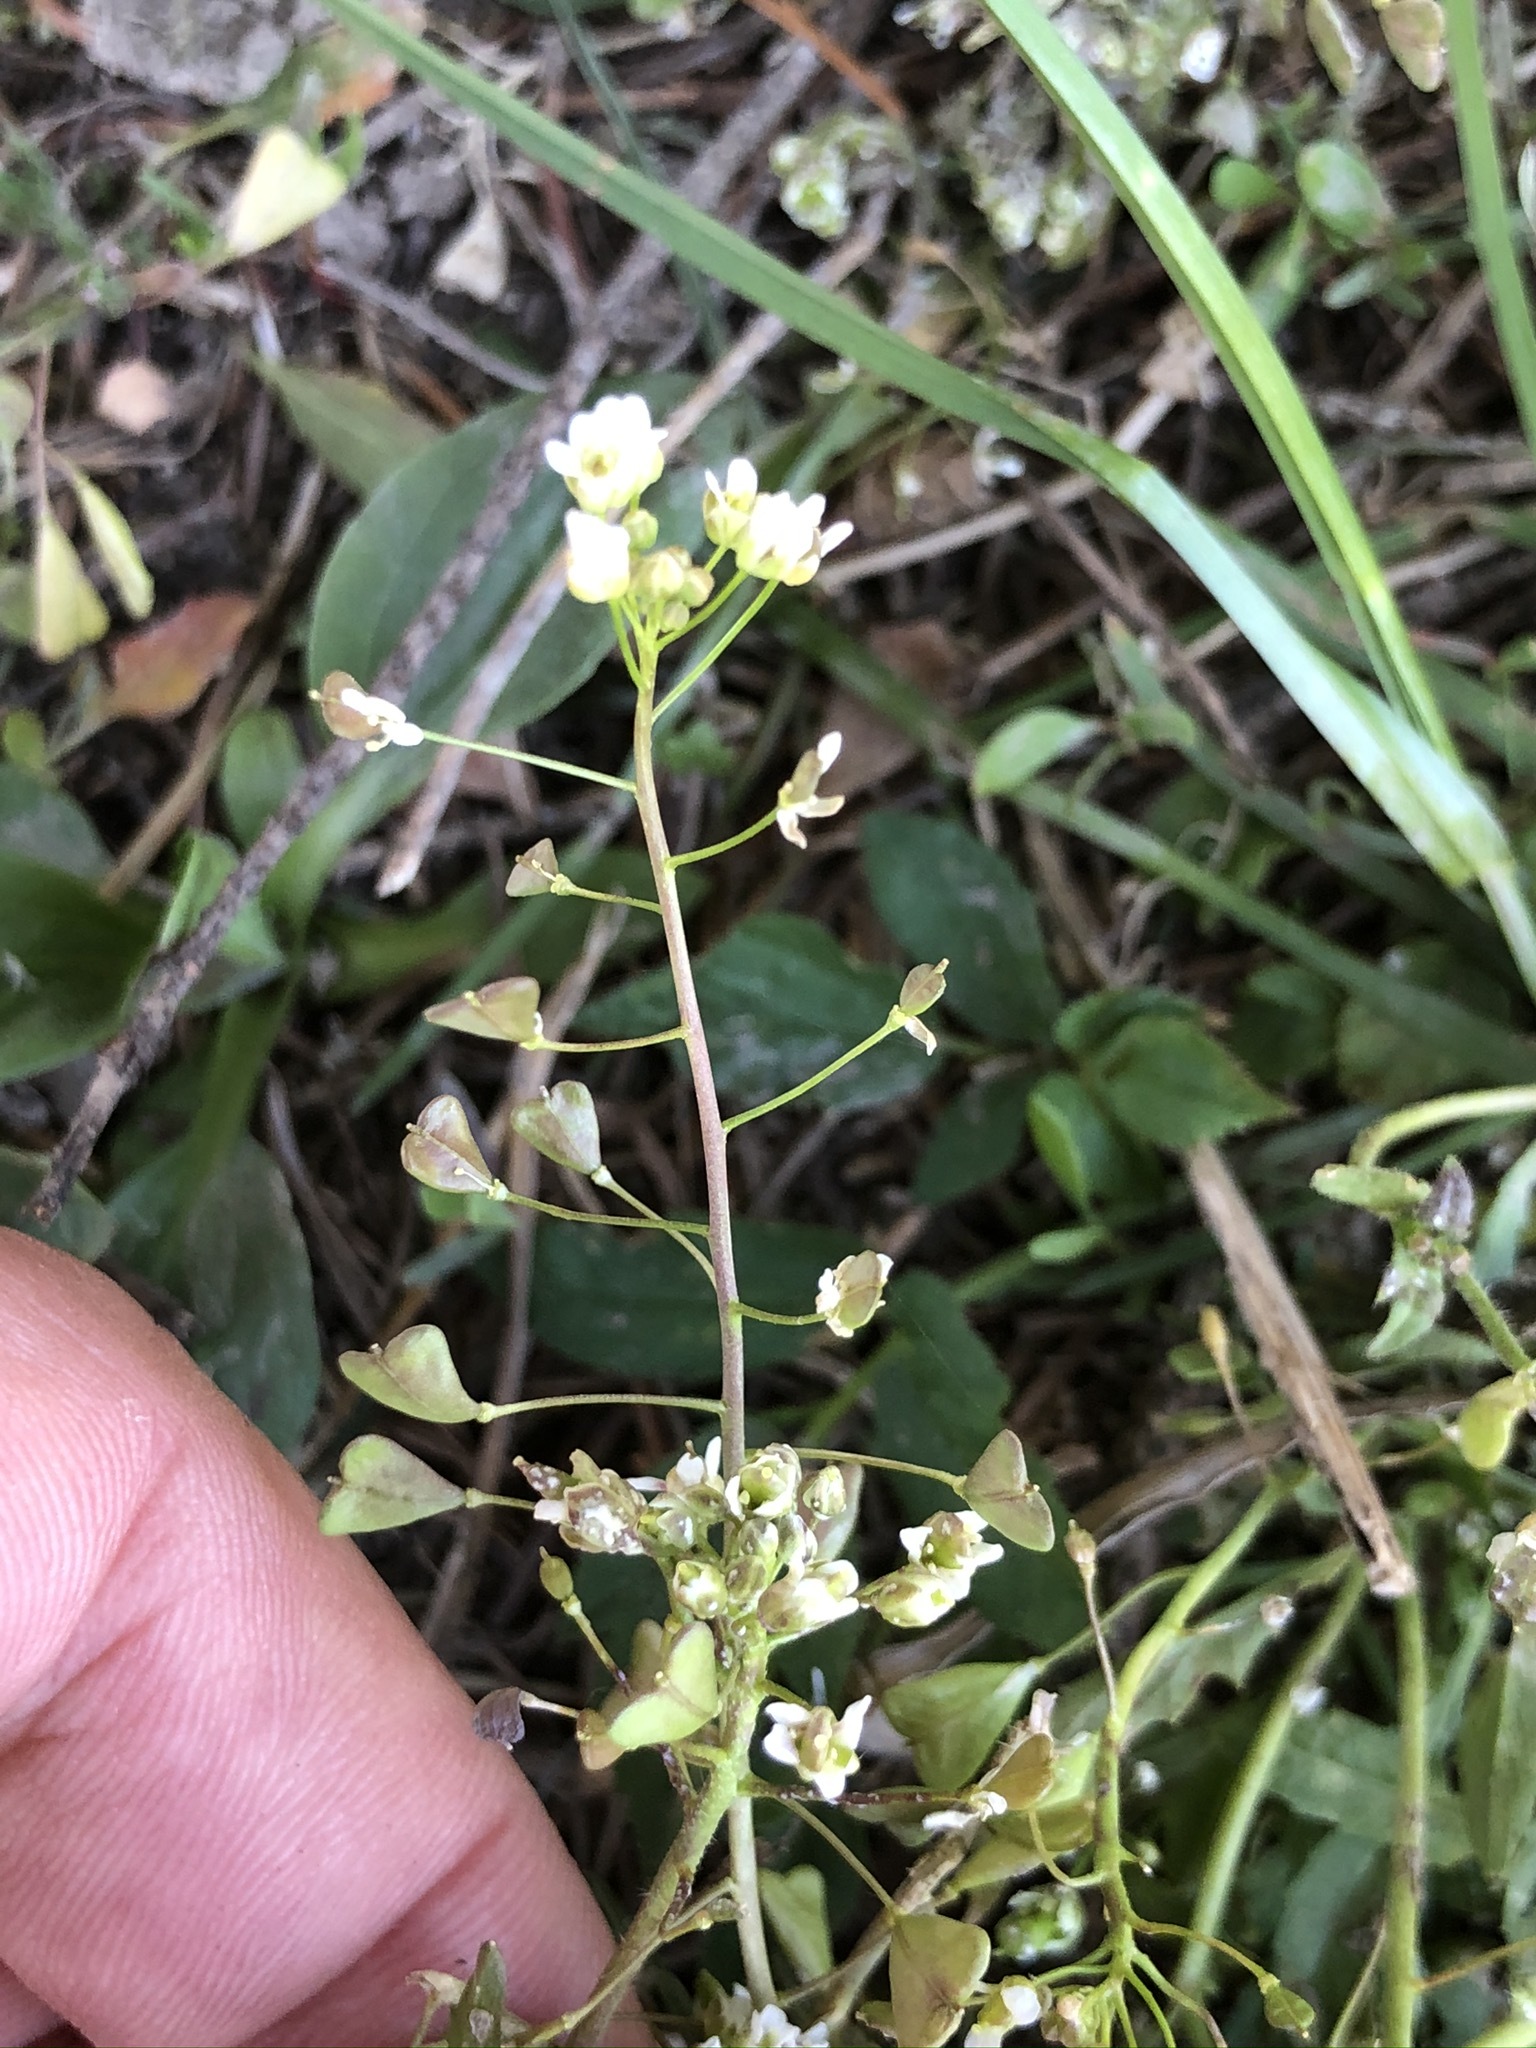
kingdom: Plantae
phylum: Tracheophyta
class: Magnoliopsida
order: Brassicales
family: Brassicaceae
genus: Capsella
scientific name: Capsella bursa-pastoris
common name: Shepherd's purse
